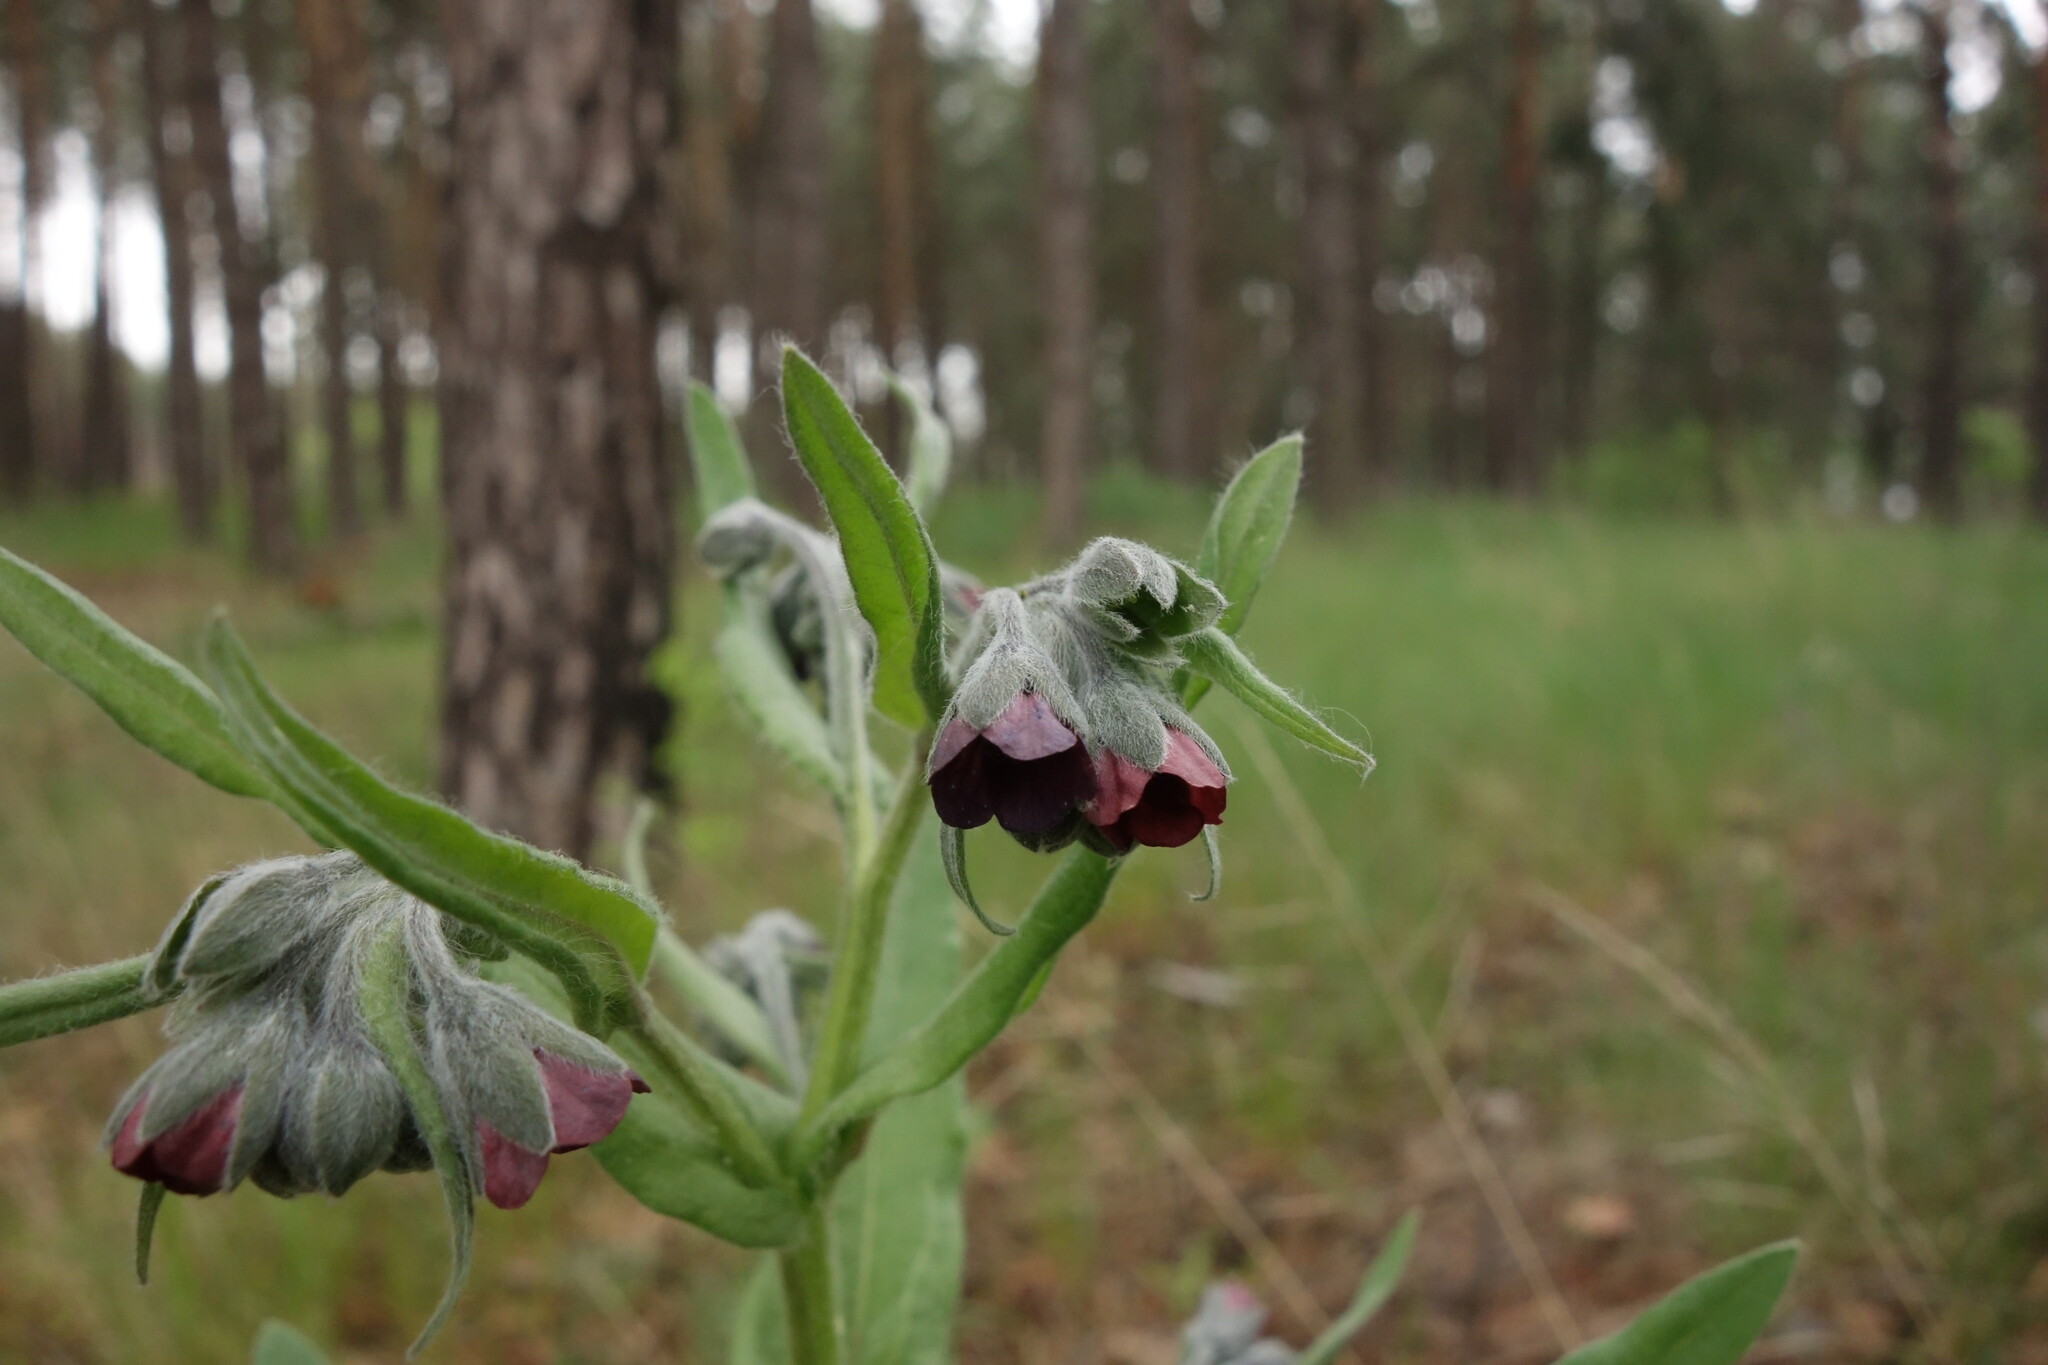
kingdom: Plantae
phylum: Tracheophyta
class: Magnoliopsida
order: Boraginales
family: Boraginaceae
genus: Cynoglossum
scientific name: Cynoglossum officinale
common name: Hound's-tongue
